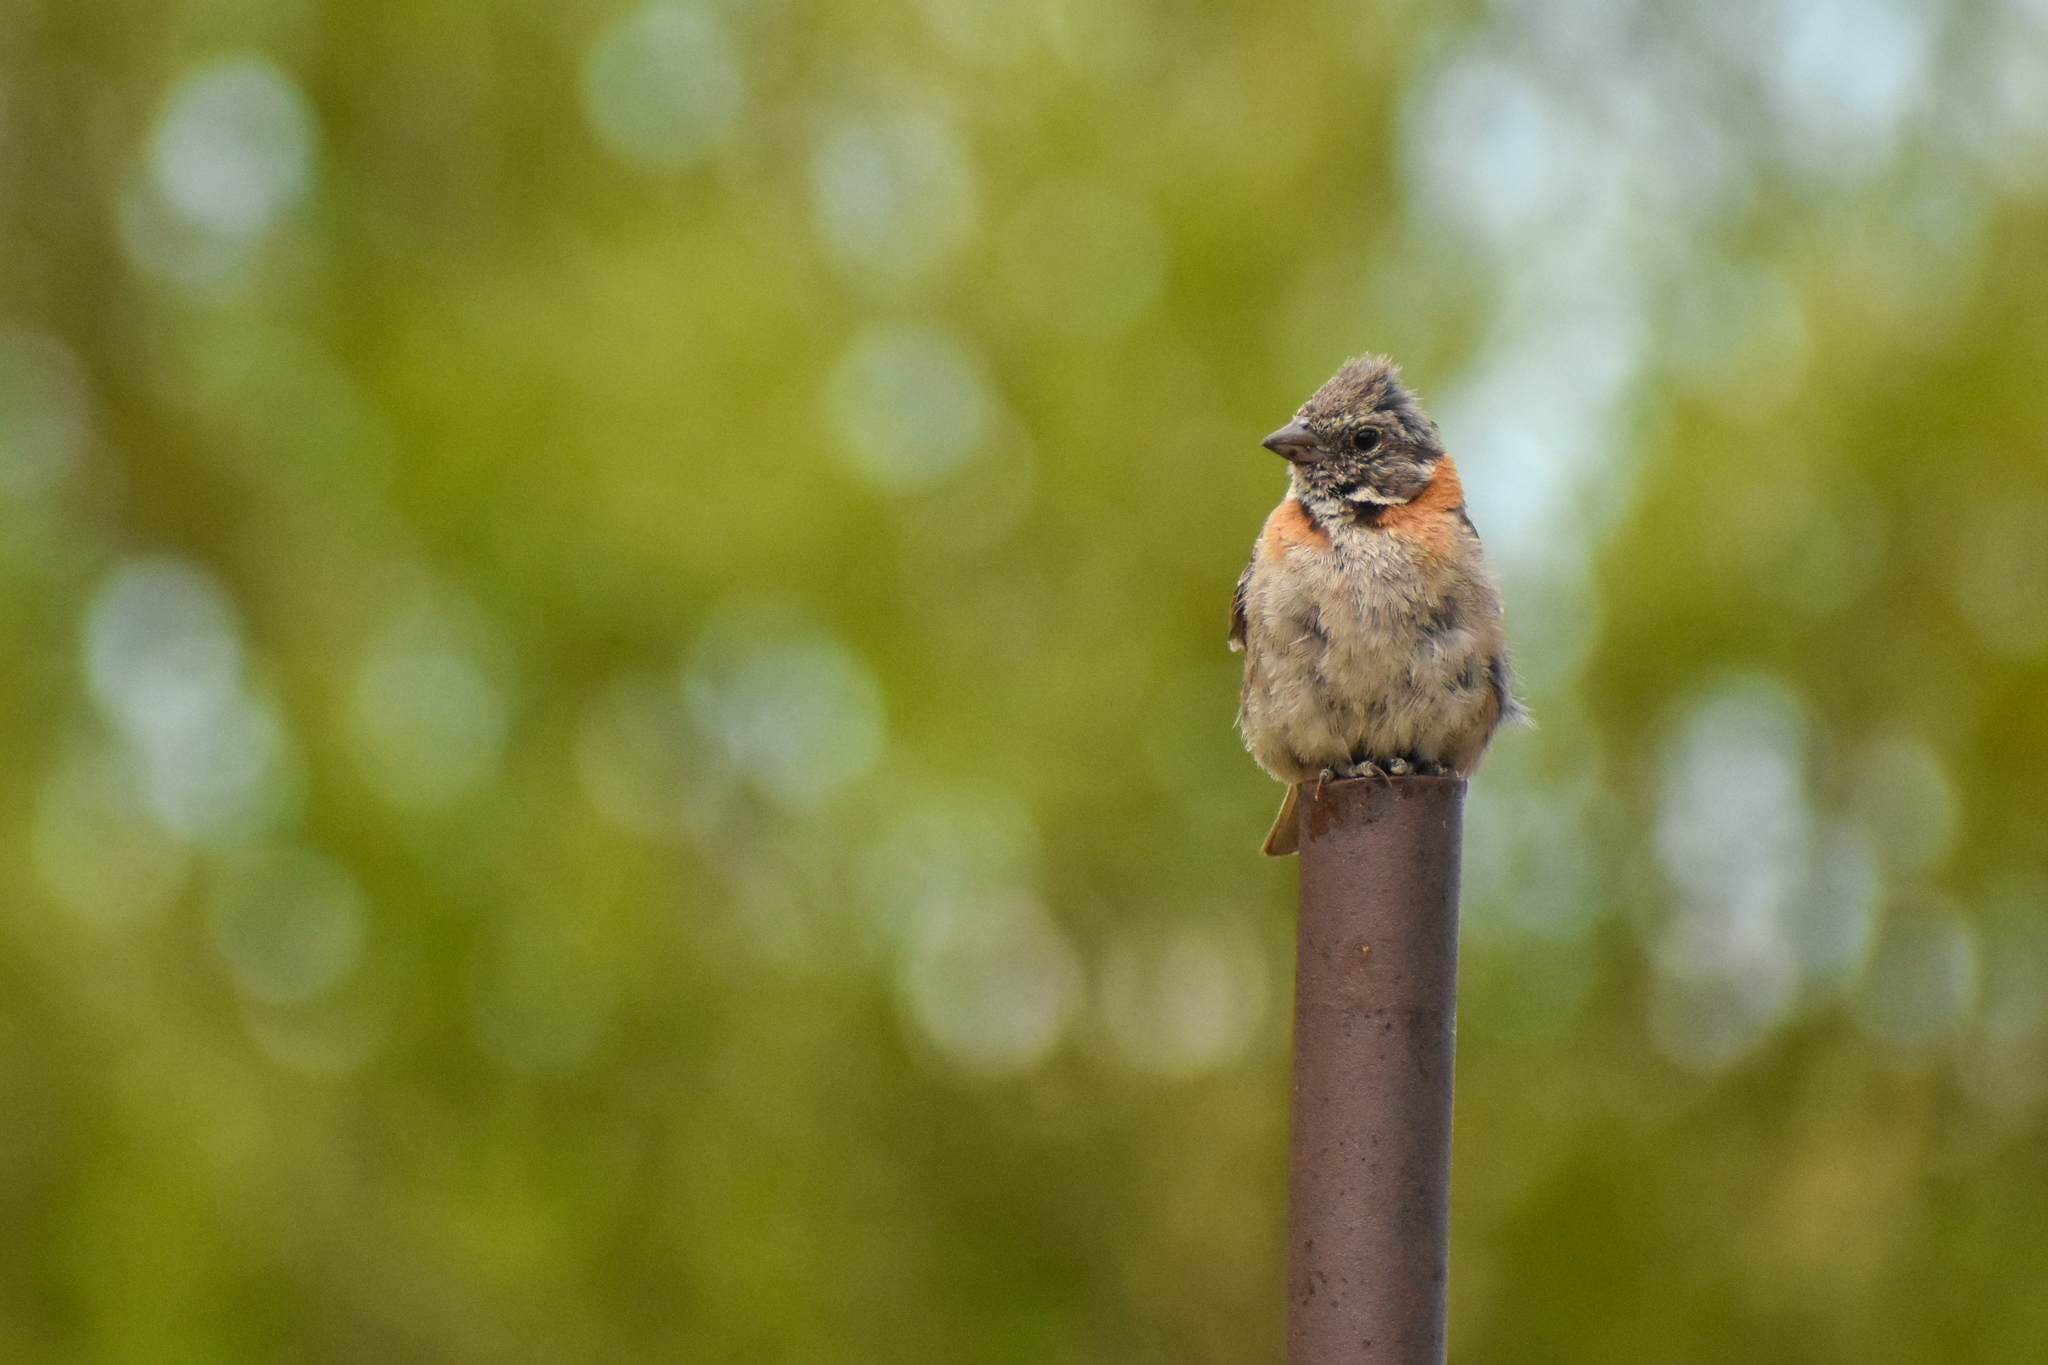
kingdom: Animalia
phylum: Chordata
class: Aves
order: Passeriformes
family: Passerellidae
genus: Zonotrichia
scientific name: Zonotrichia capensis
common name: Rufous-collared sparrow
